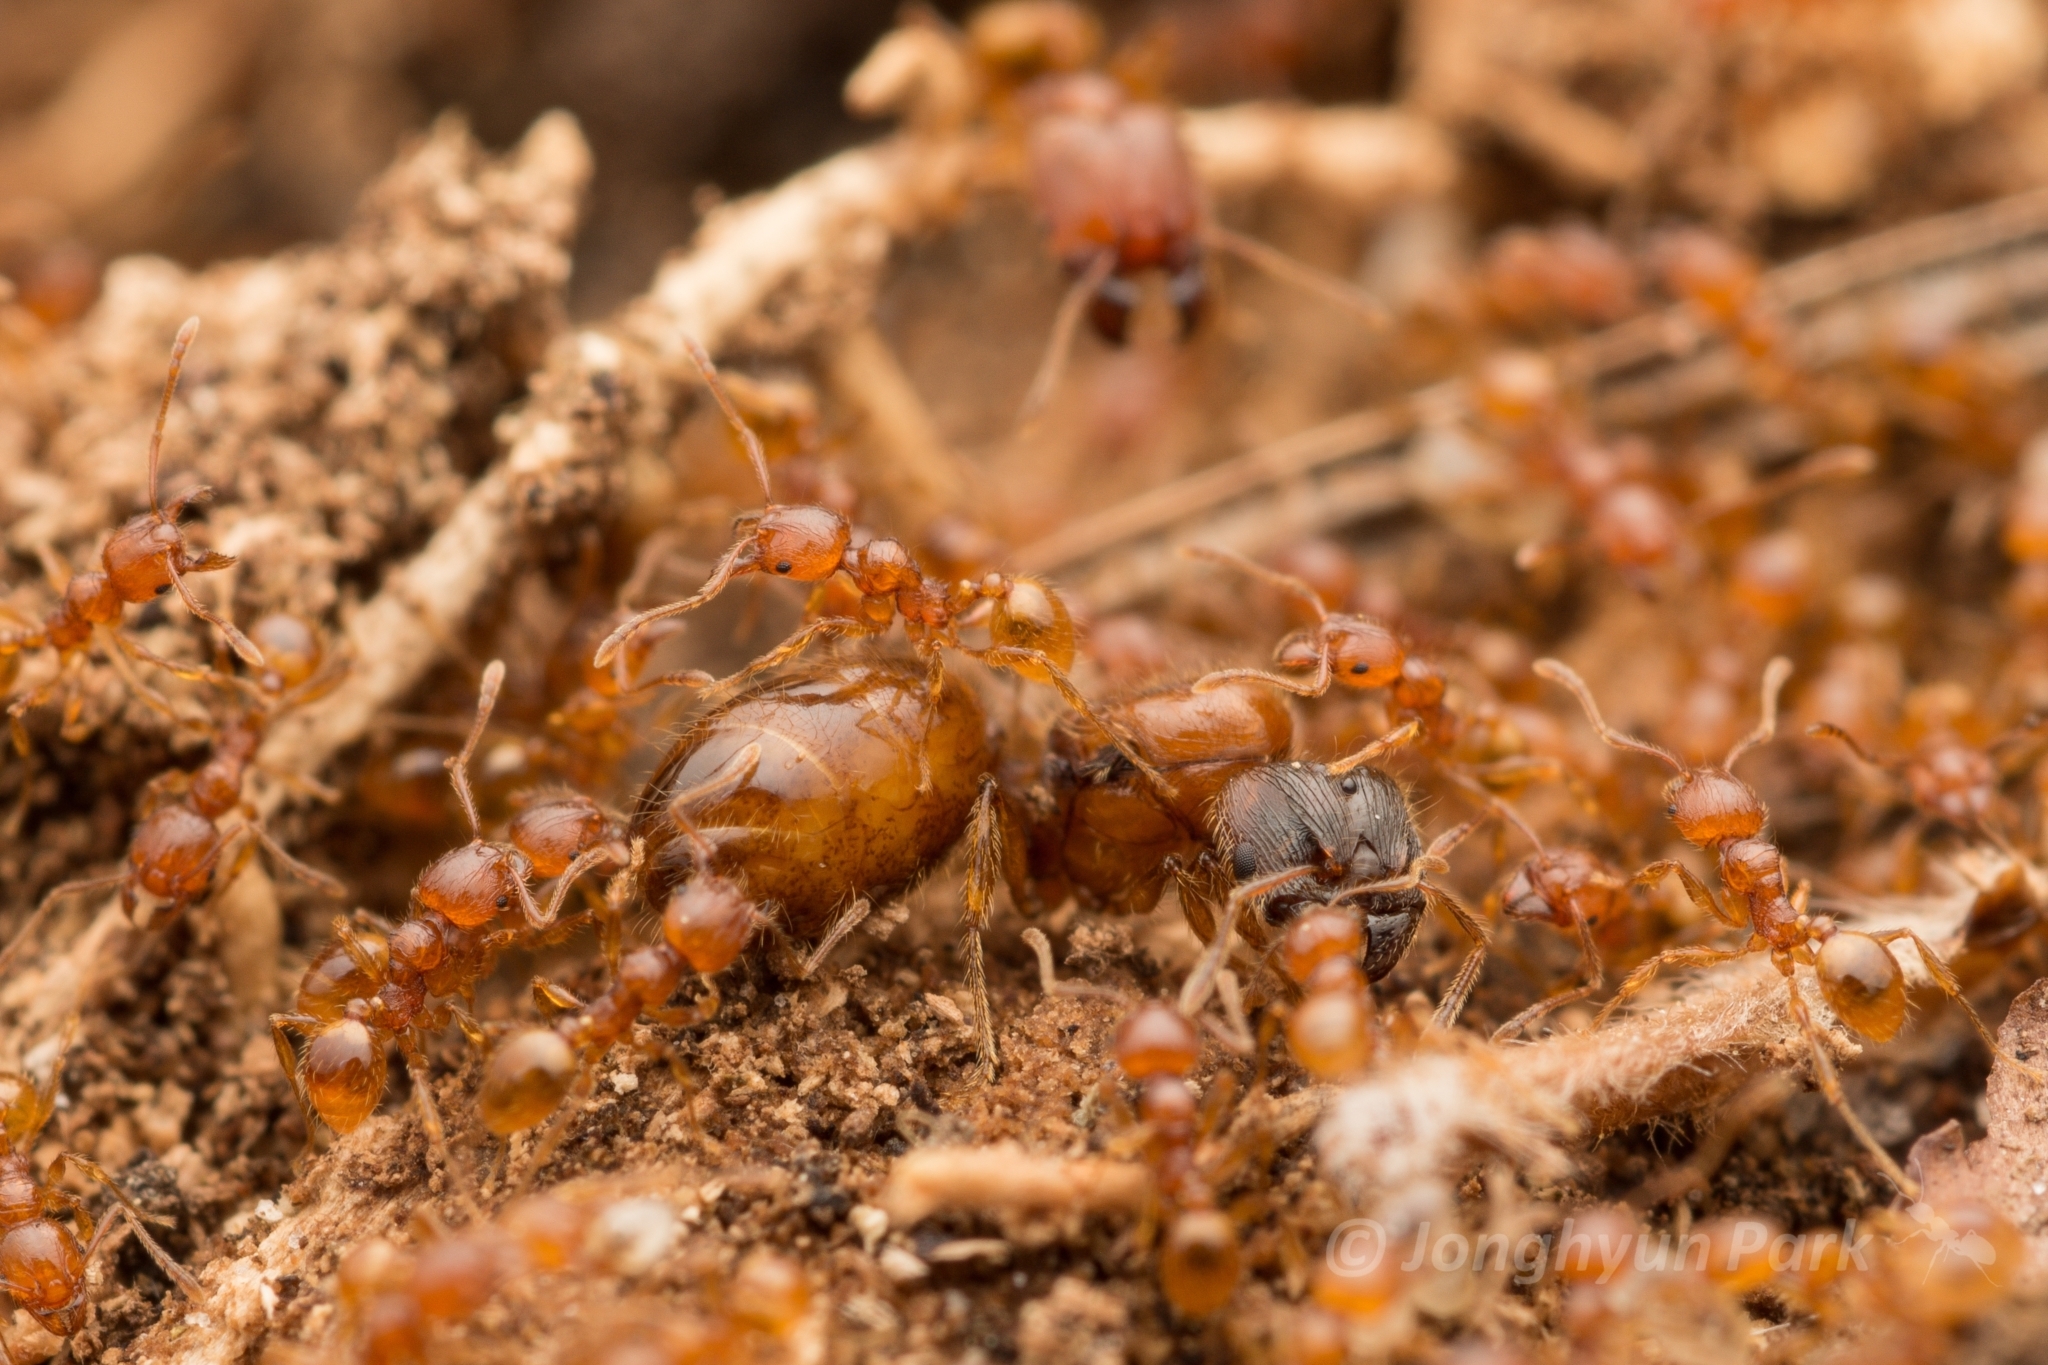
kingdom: Animalia
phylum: Arthropoda
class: Insecta
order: Hymenoptera
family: Formicidae
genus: Pheidole
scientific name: Pheidole fervida
